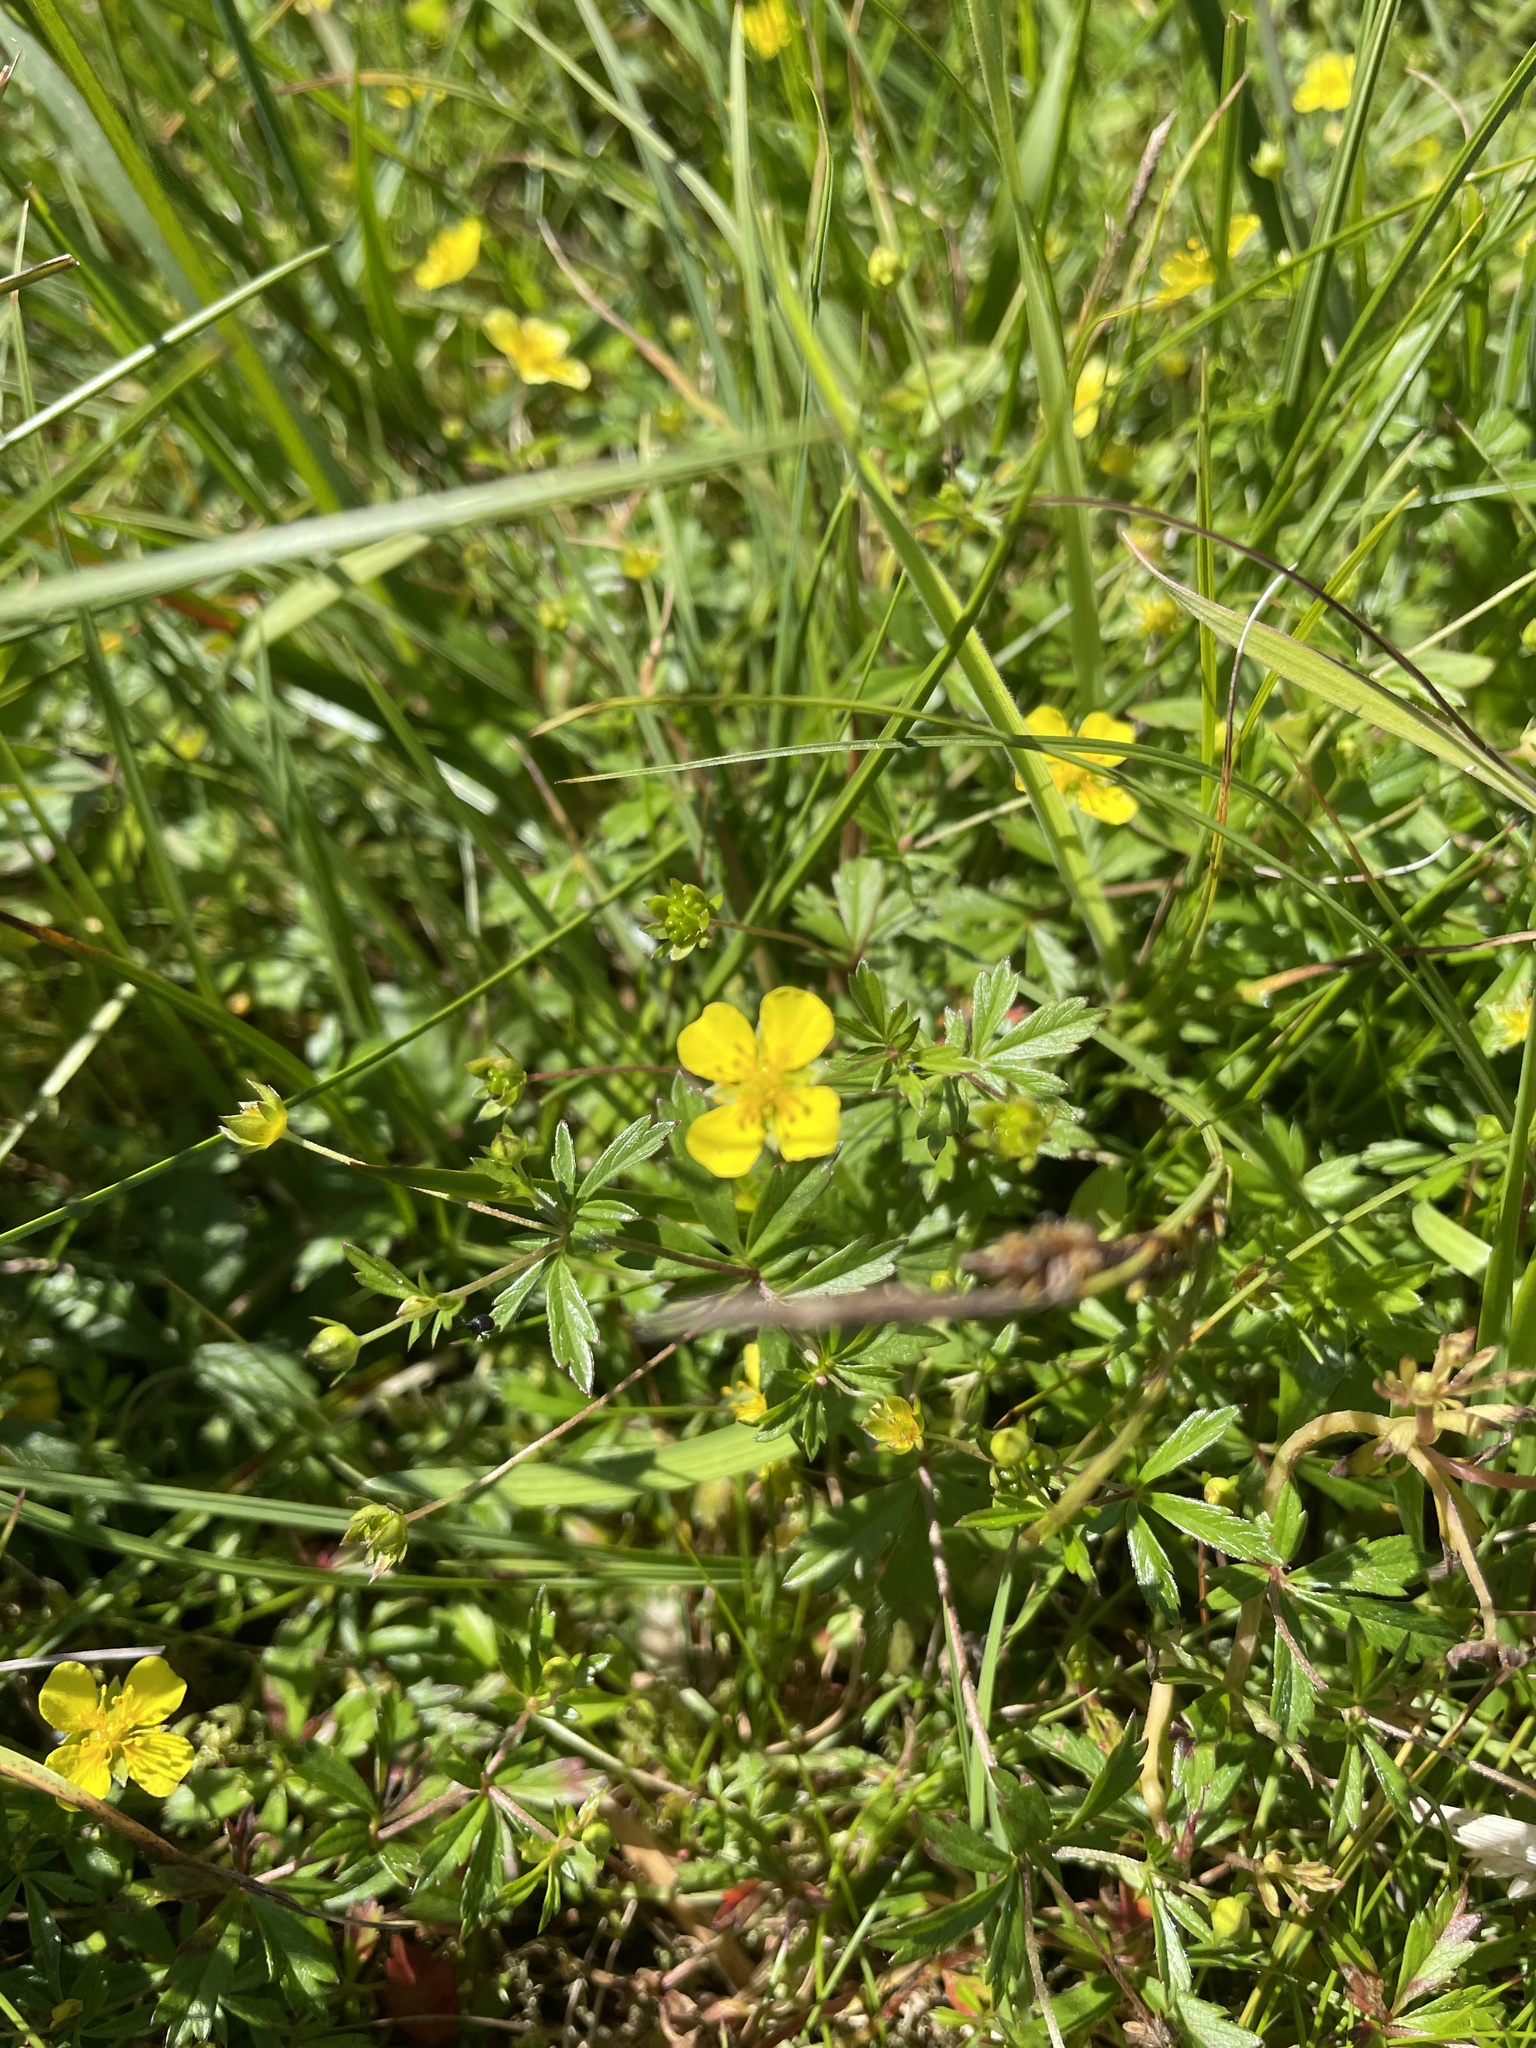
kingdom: Plantae
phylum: Tracheophyta
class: Magnoliopsida
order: Rosales
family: Rosaceae
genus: Potentilla
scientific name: Potentilla erecta
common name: Tormentil
